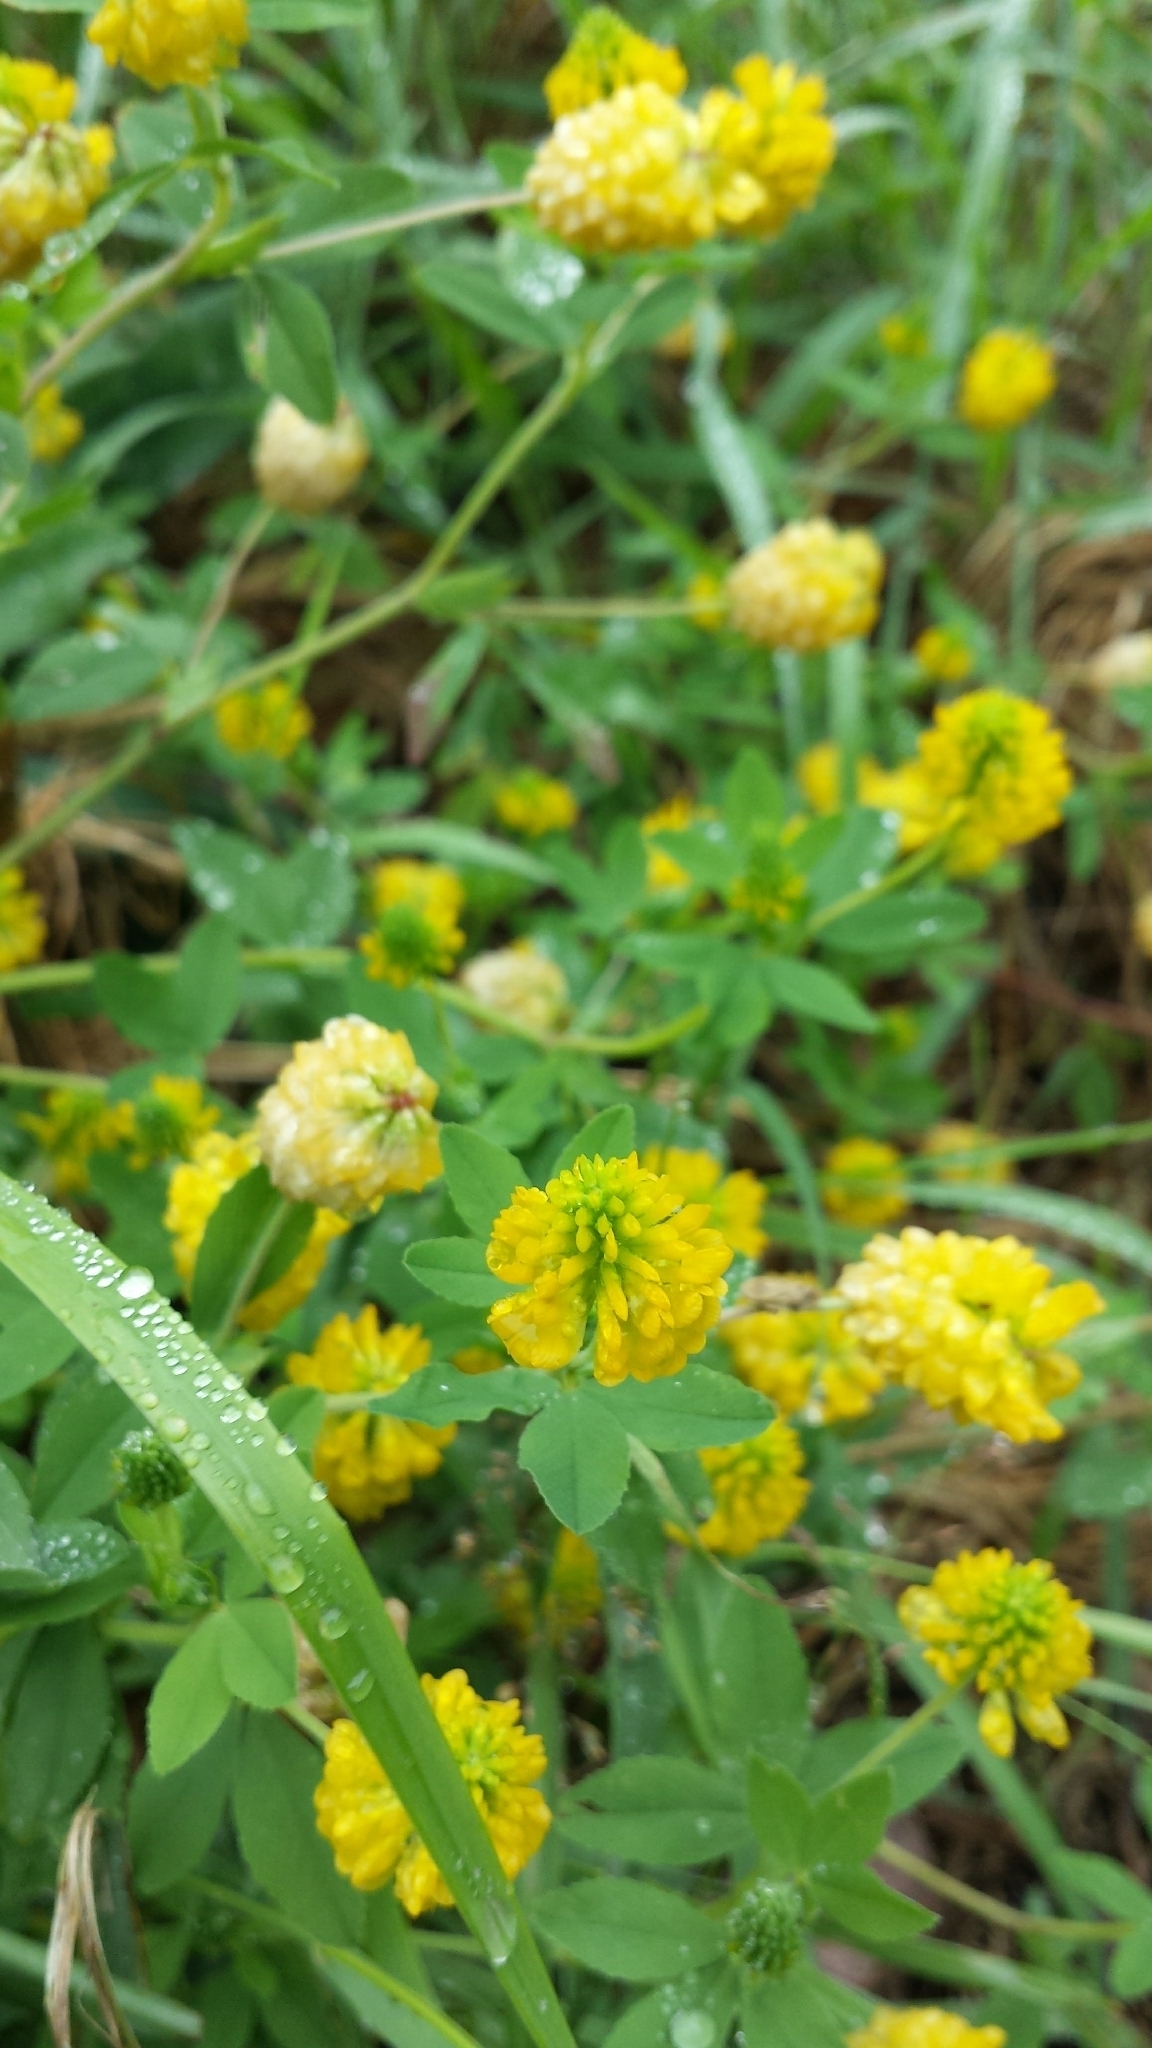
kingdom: Plantae
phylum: Tracheophyta
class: Magnoliopsida
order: Fabales
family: Fabaceae
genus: Trifolium
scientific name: Trifolium aureum
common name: Golden clover
